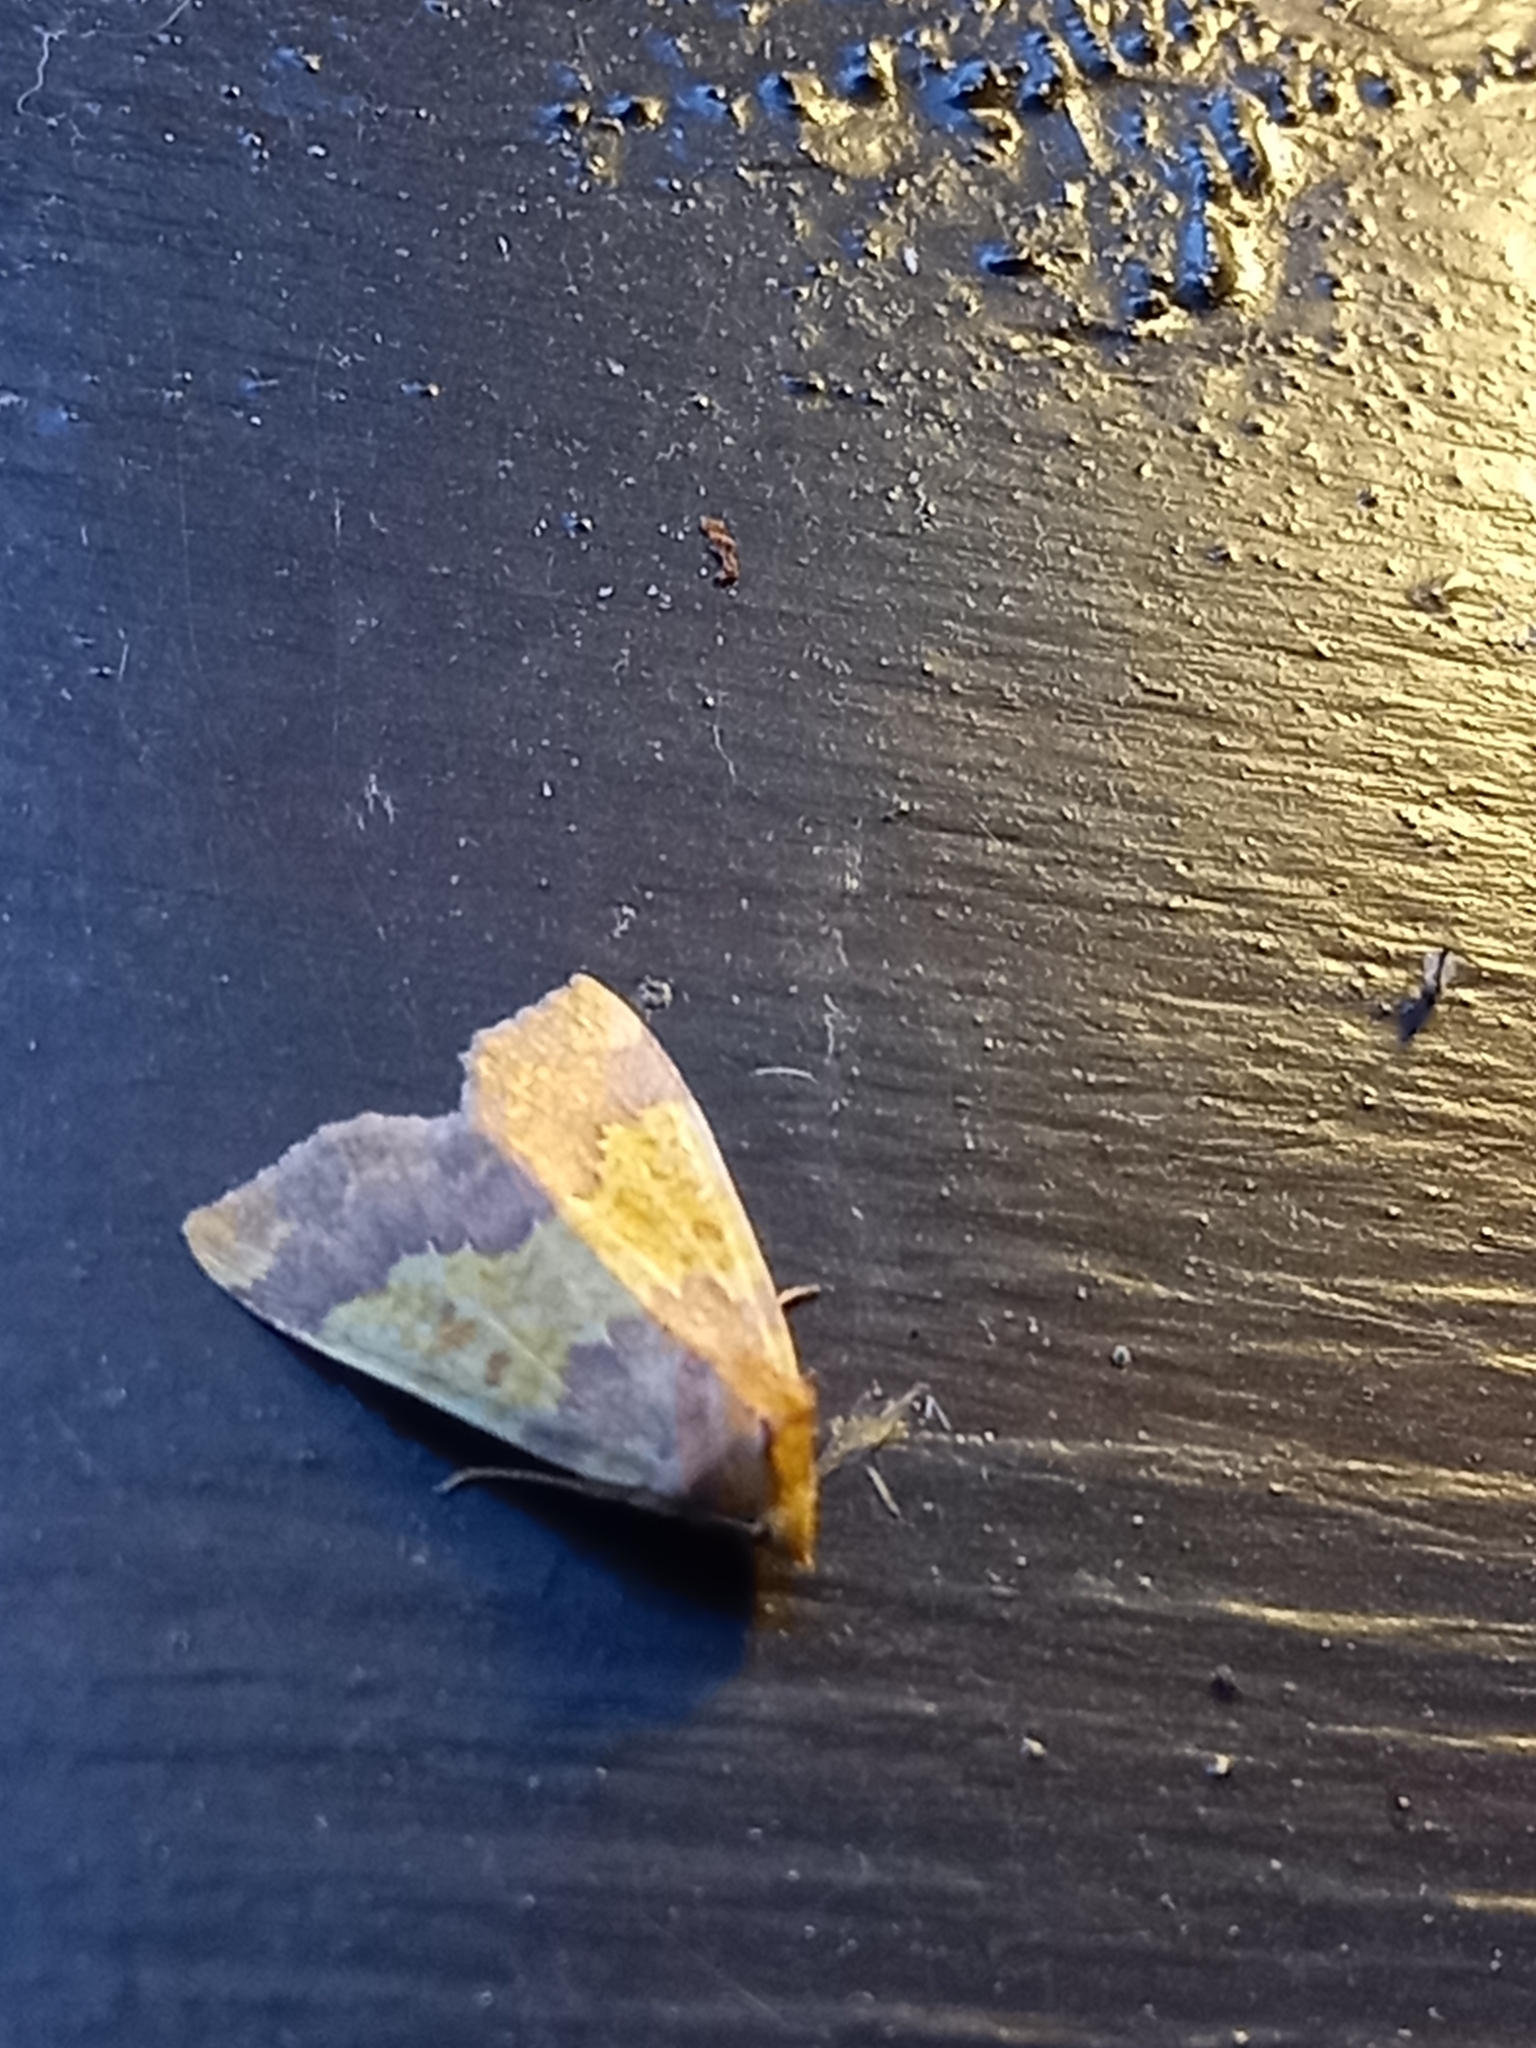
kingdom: Animalia
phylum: Arthropoda
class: Insecta
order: Lepidoptera
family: Noctuidae
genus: Tiliacea
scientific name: Tiliacea aurago
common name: Barred sallow
